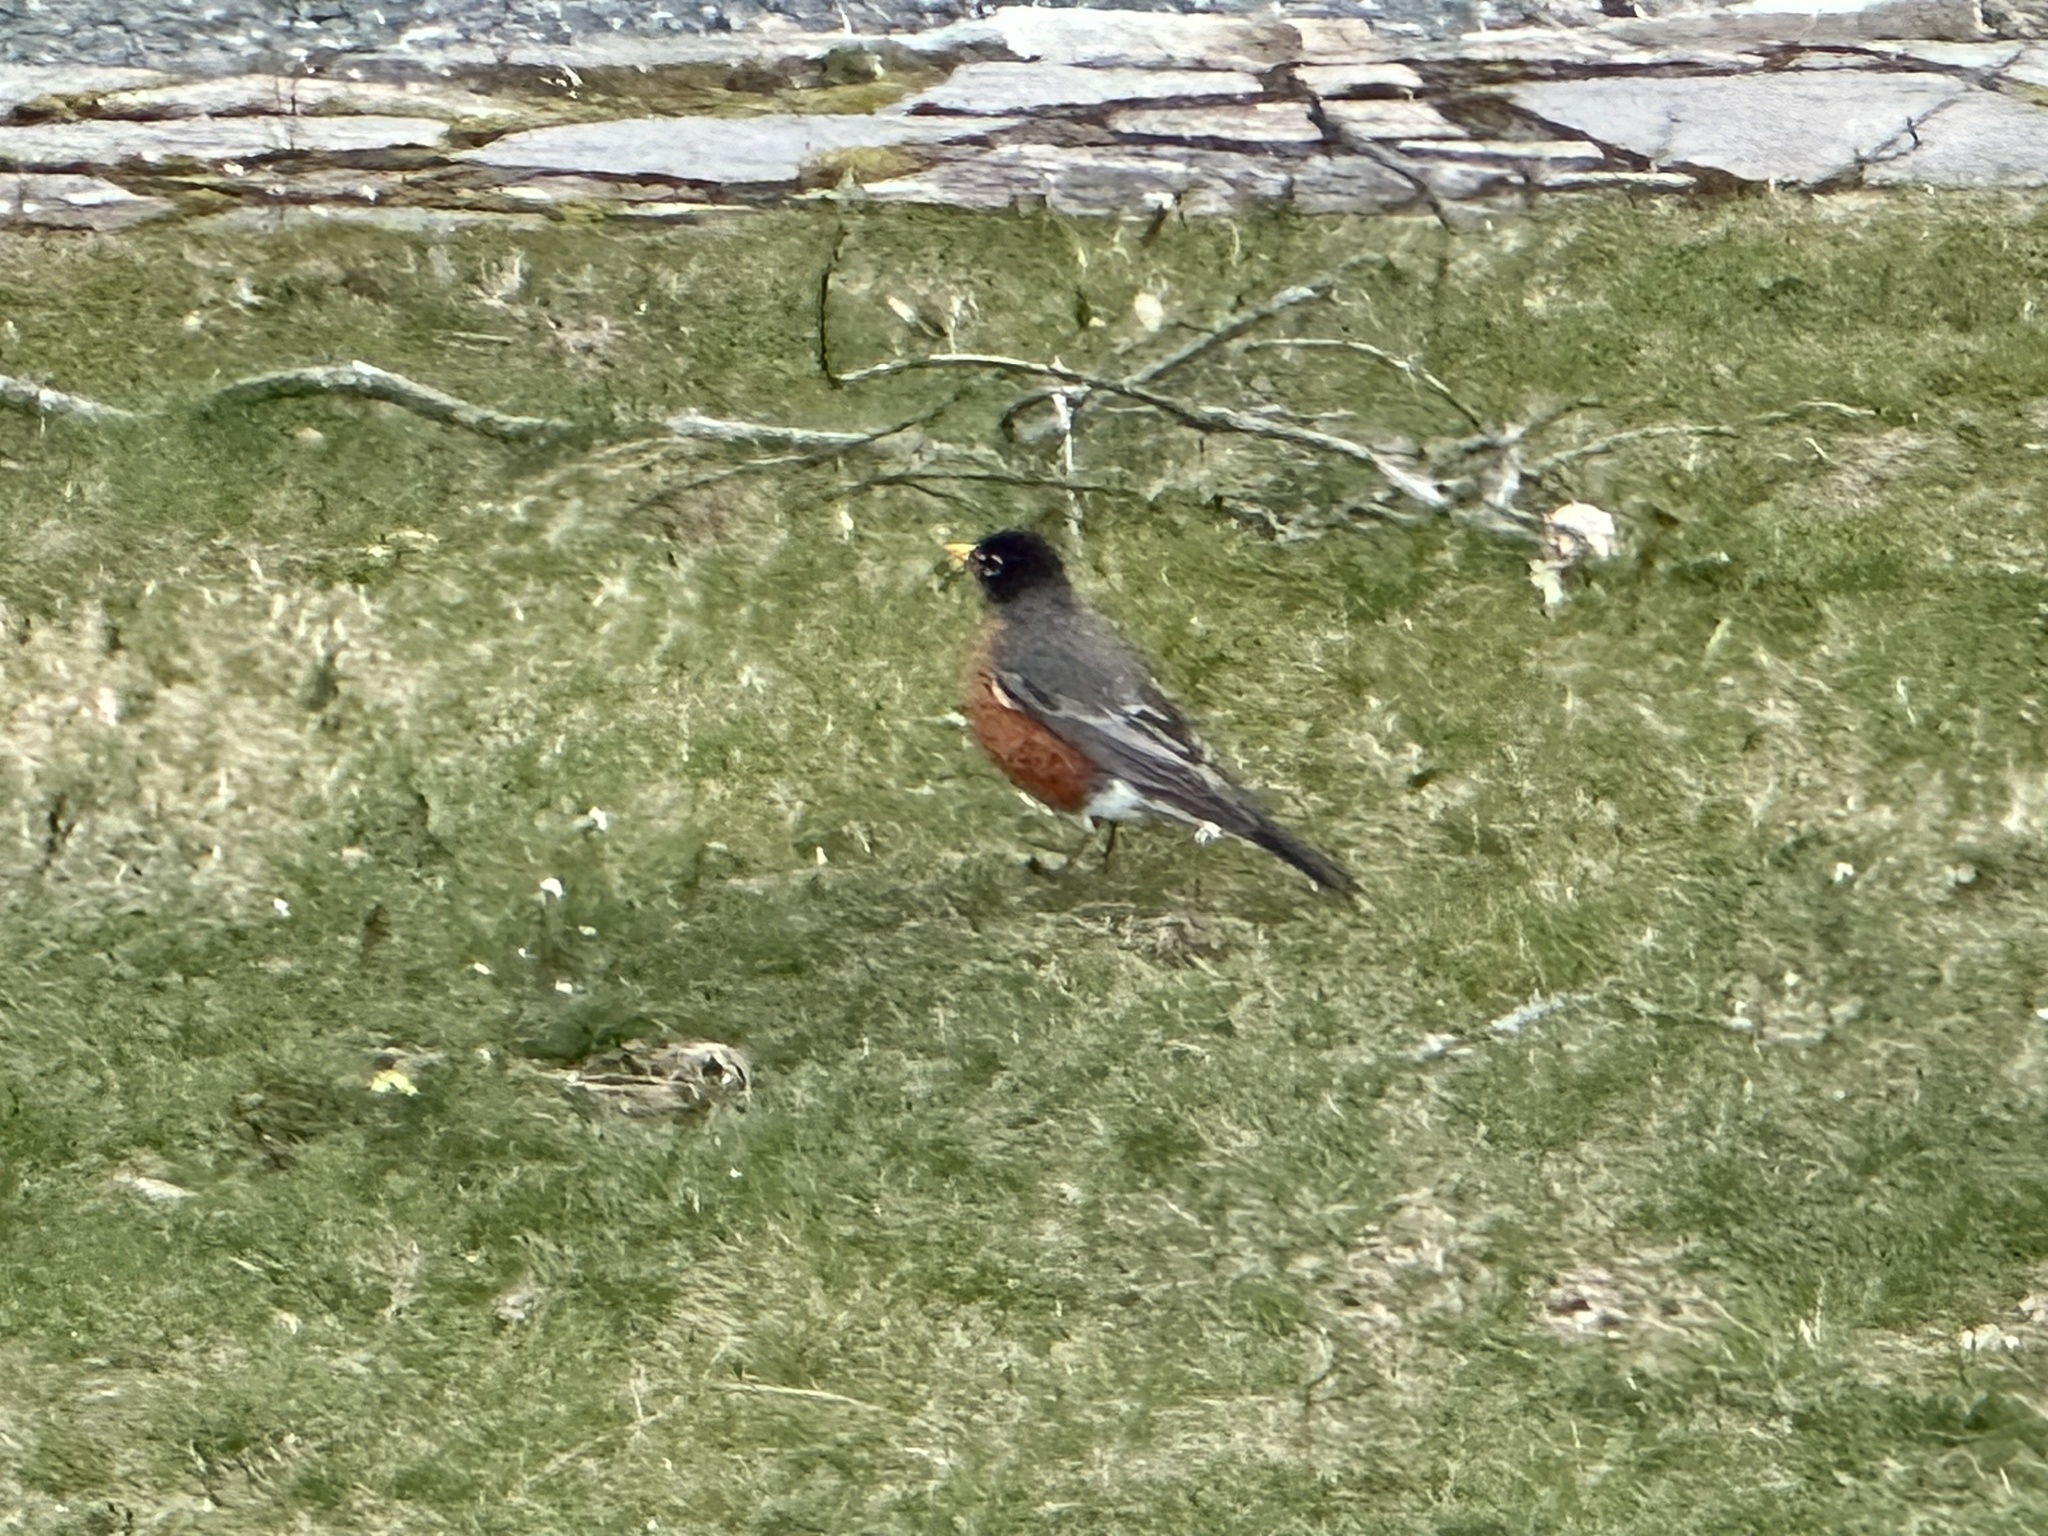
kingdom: Animalia
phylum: Chordata
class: Aves
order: Passeriformes
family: Turdidae
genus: Turdus
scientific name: Turdus migratorius
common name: American robin
